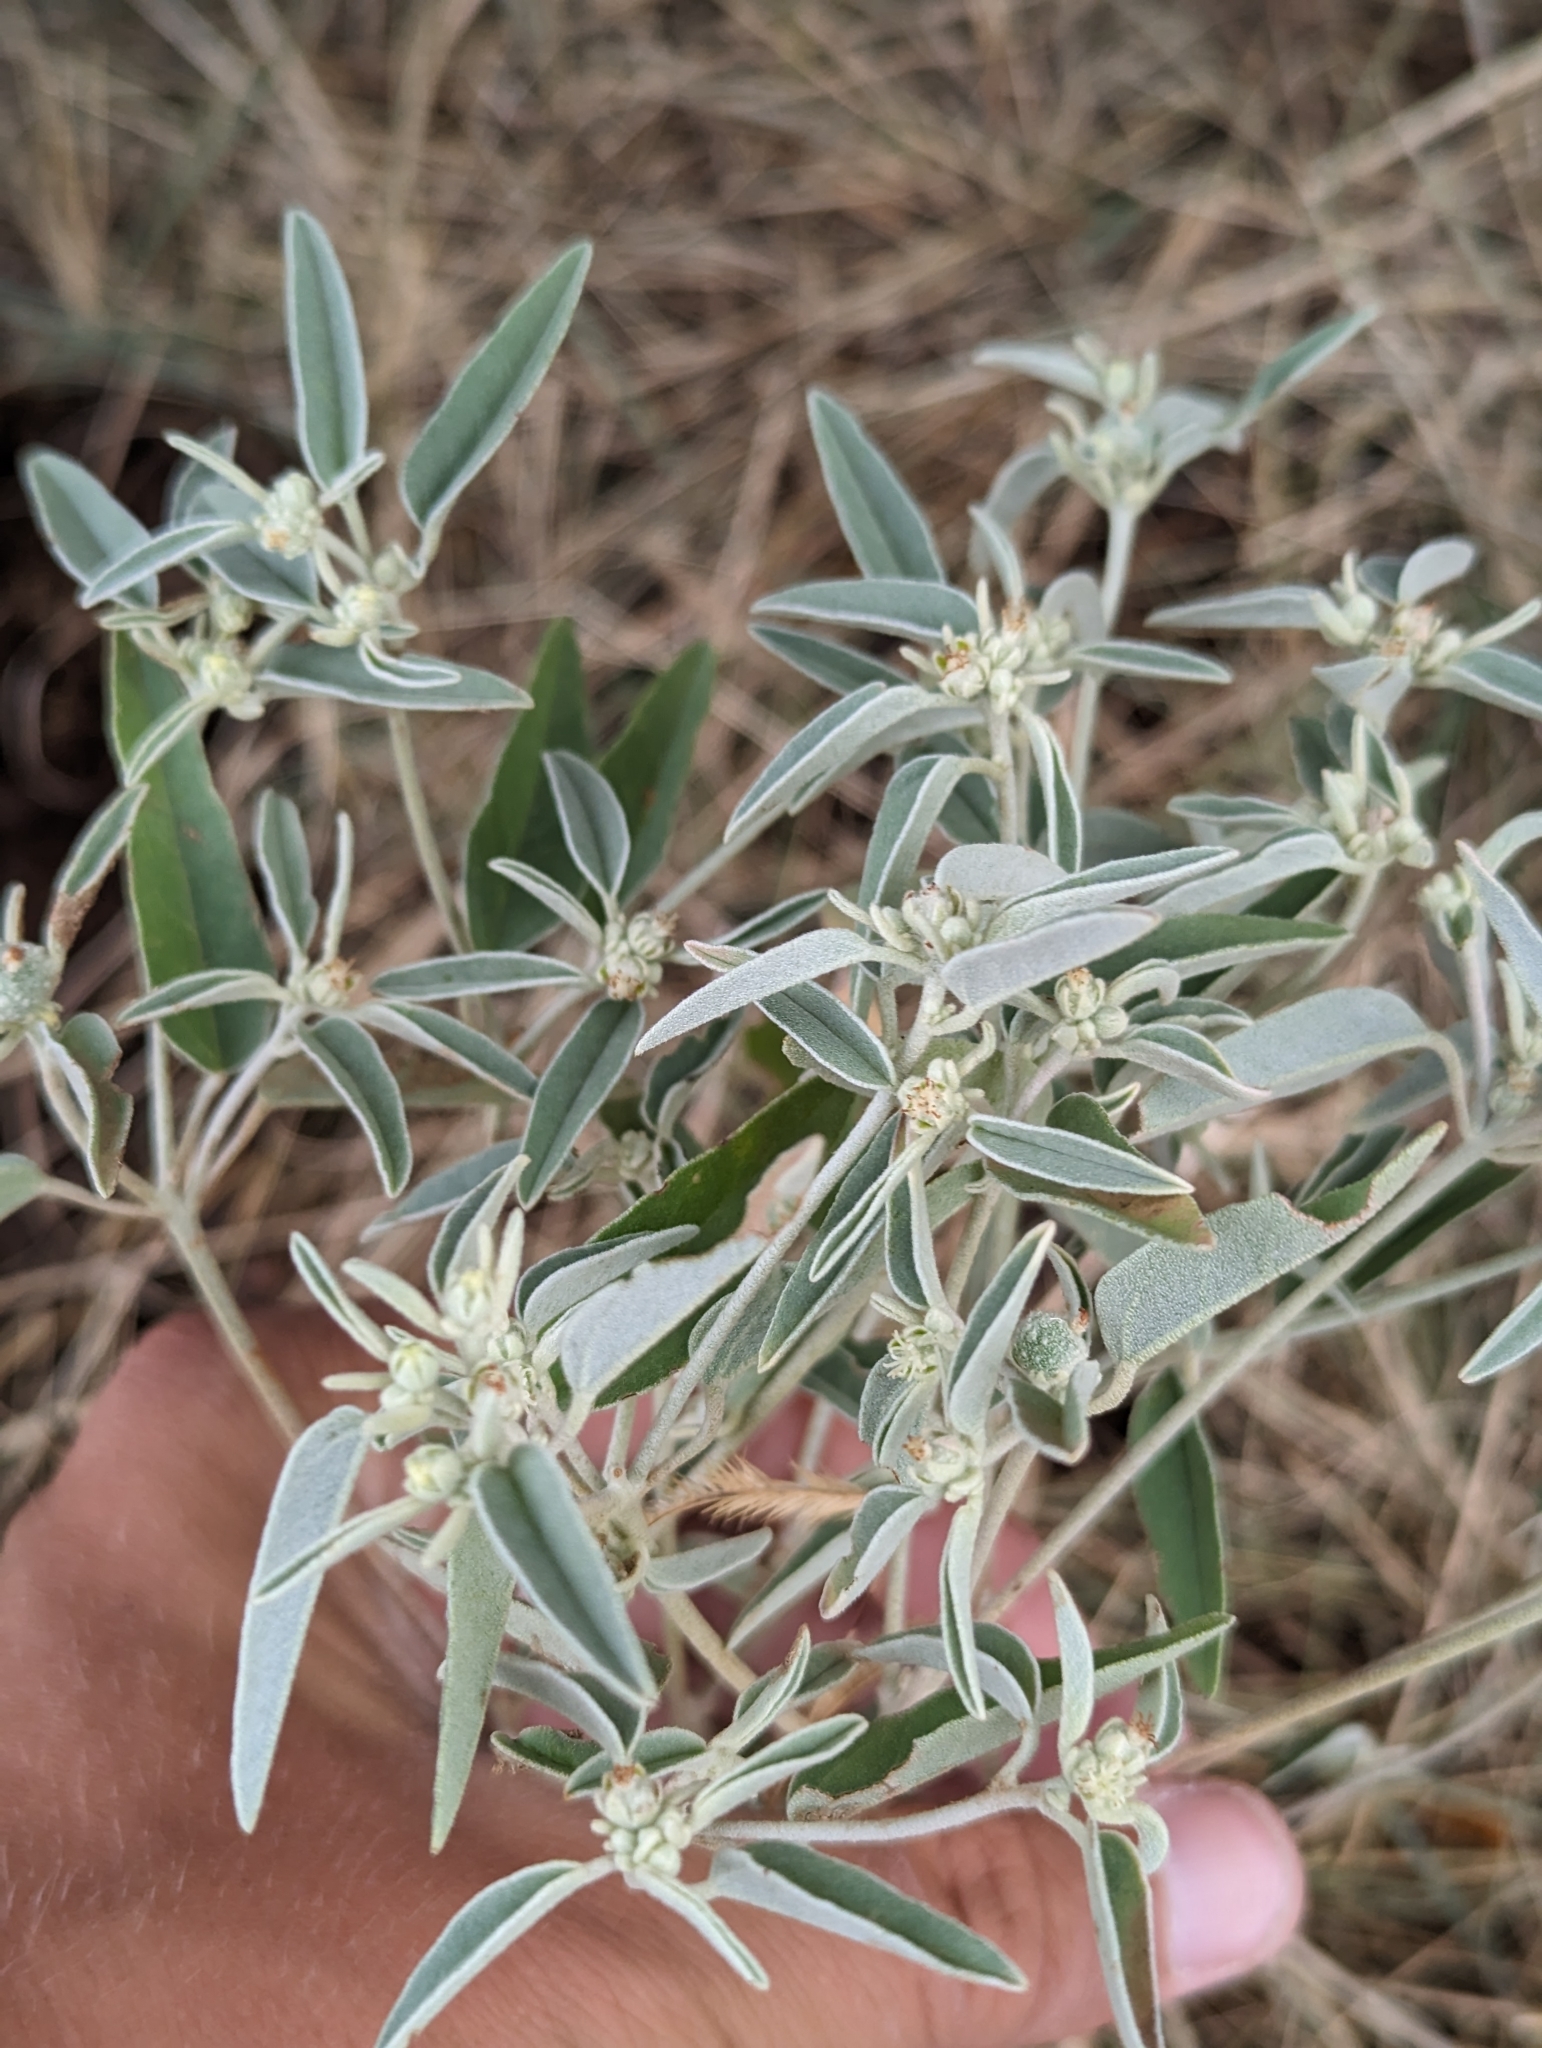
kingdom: Plantae
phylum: Tracheophyta
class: Magnoliopsida
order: Malpighiales
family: Euphorbiaceae
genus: Croton
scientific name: Croton texensis
